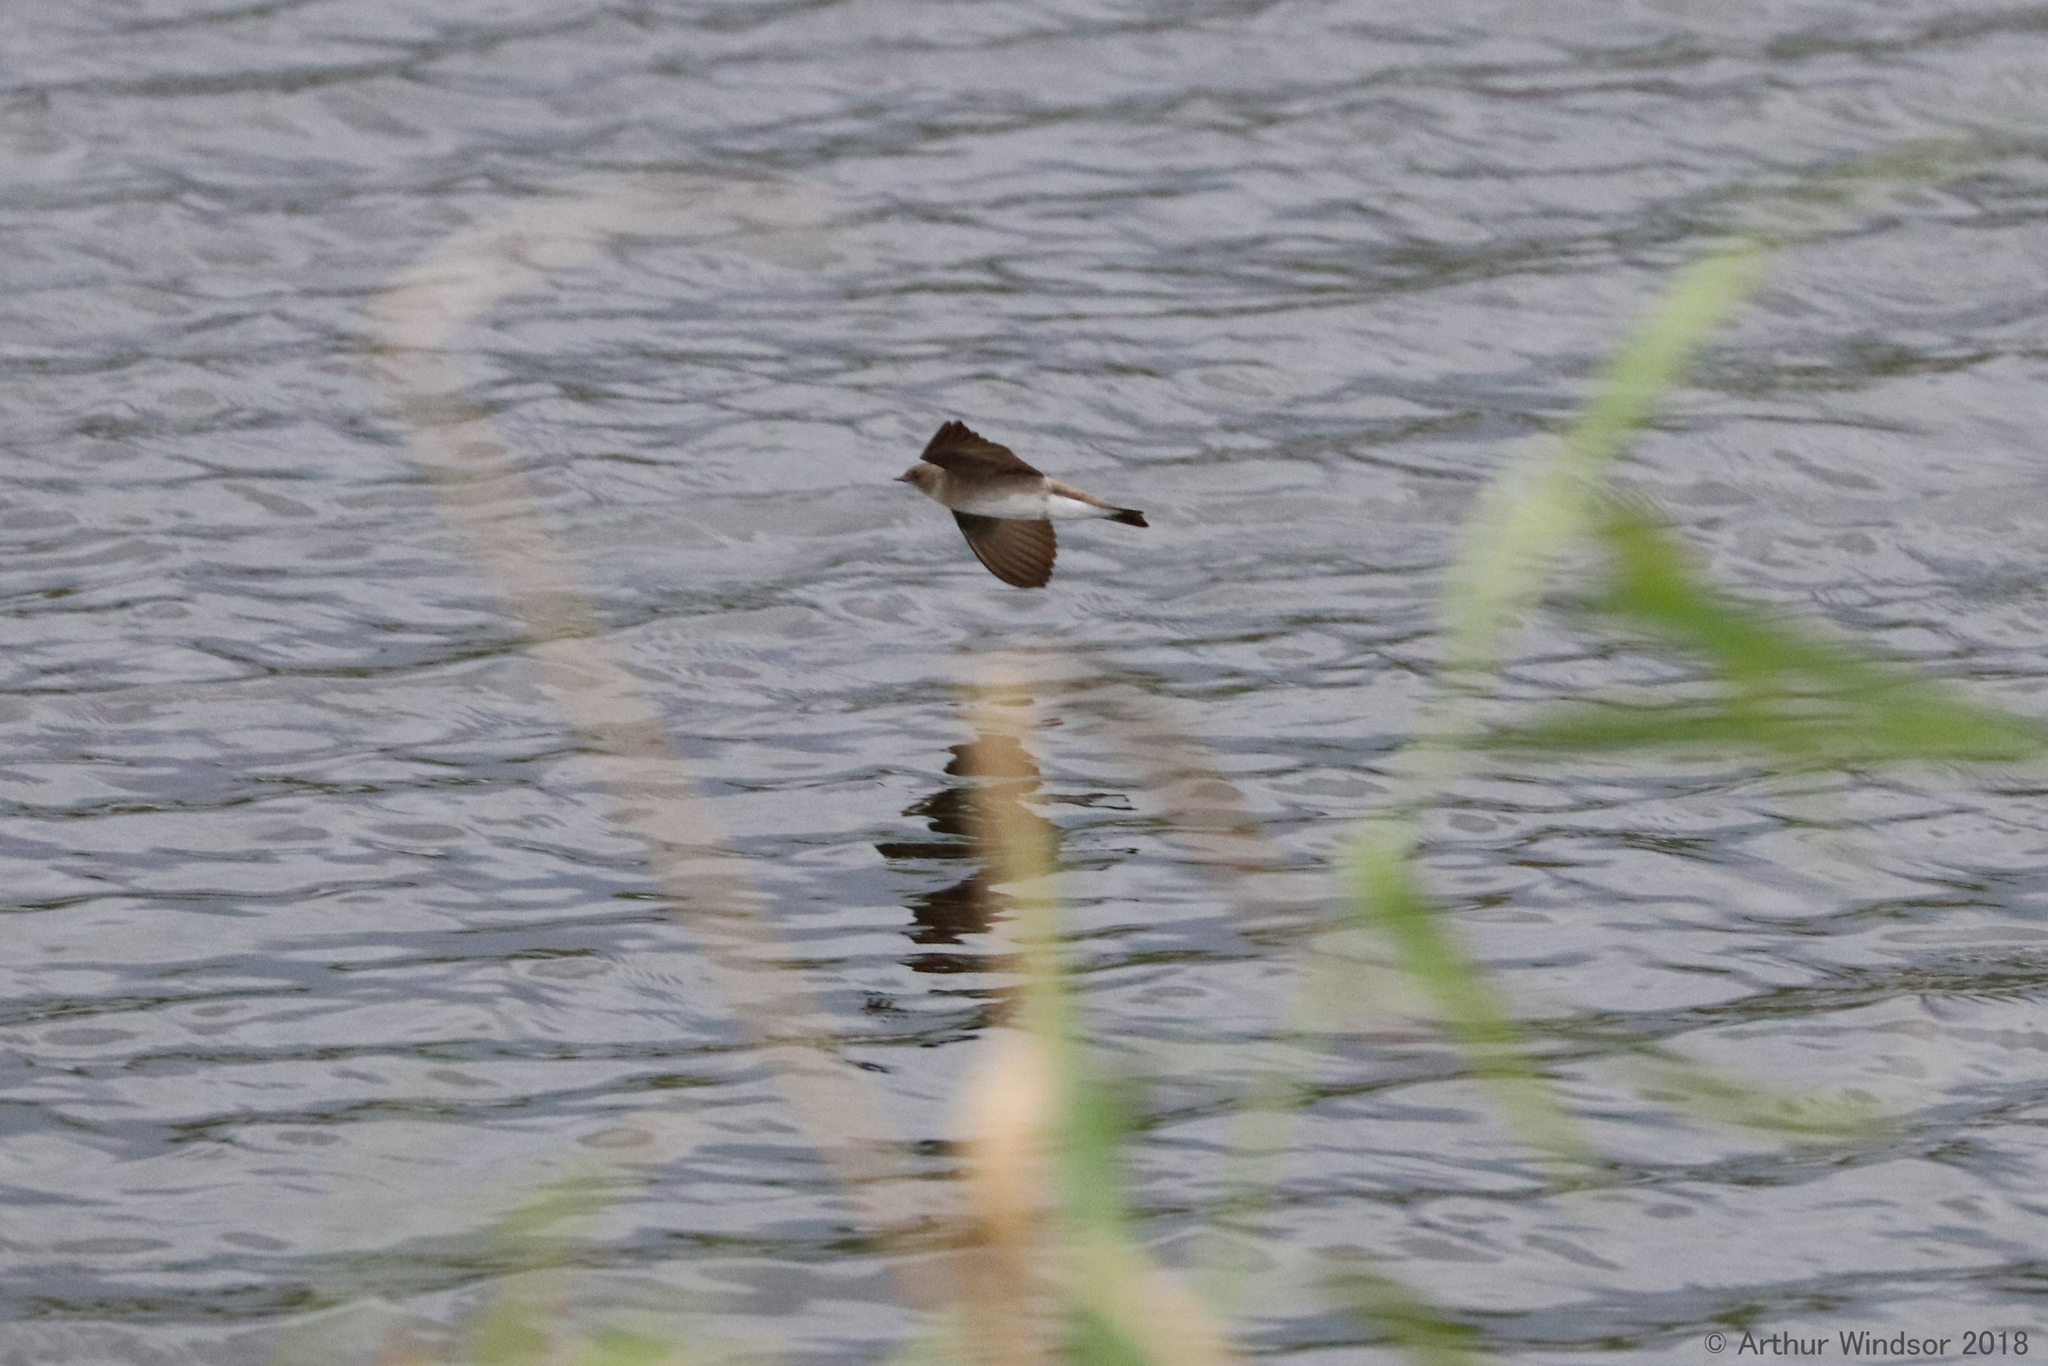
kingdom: Animalia
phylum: Chordata
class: Aves
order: Passeriformes
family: Hirundinidae
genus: Stelgidopteryx
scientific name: Stelgidopteryx serripennis
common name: Northern rough-winged swallow
